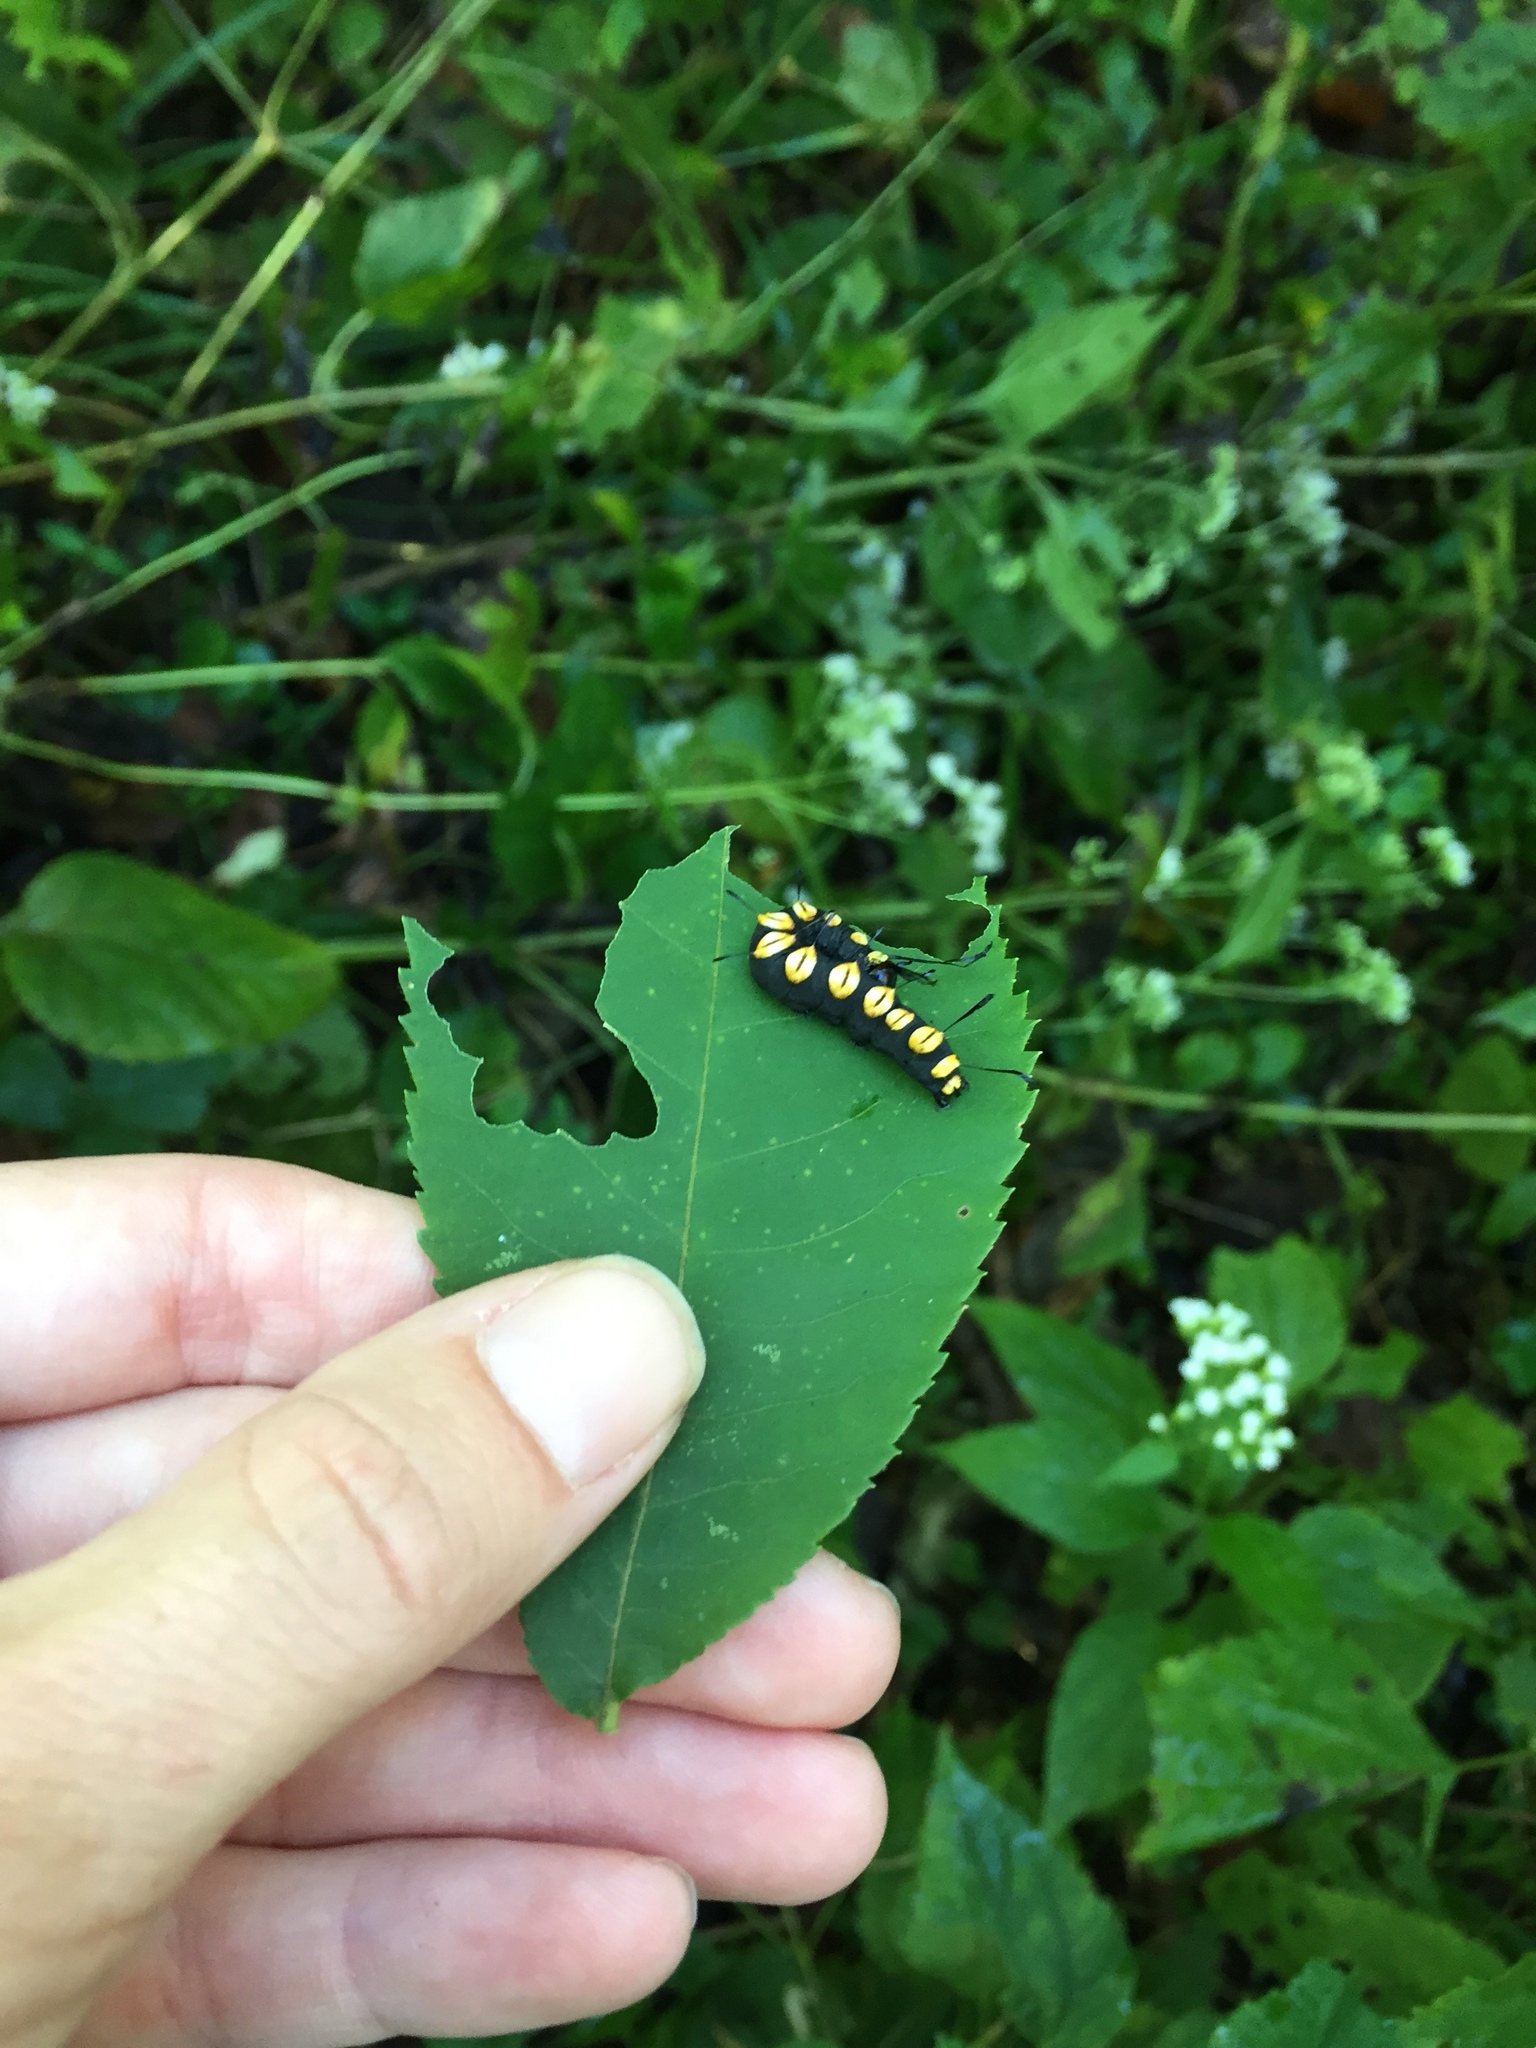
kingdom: Animalia
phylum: Arthropoda
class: Insecta
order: Lepidoptera
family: Noctuidae
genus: Acronicta
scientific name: Acronicta funeralis
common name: Funerary dagger
